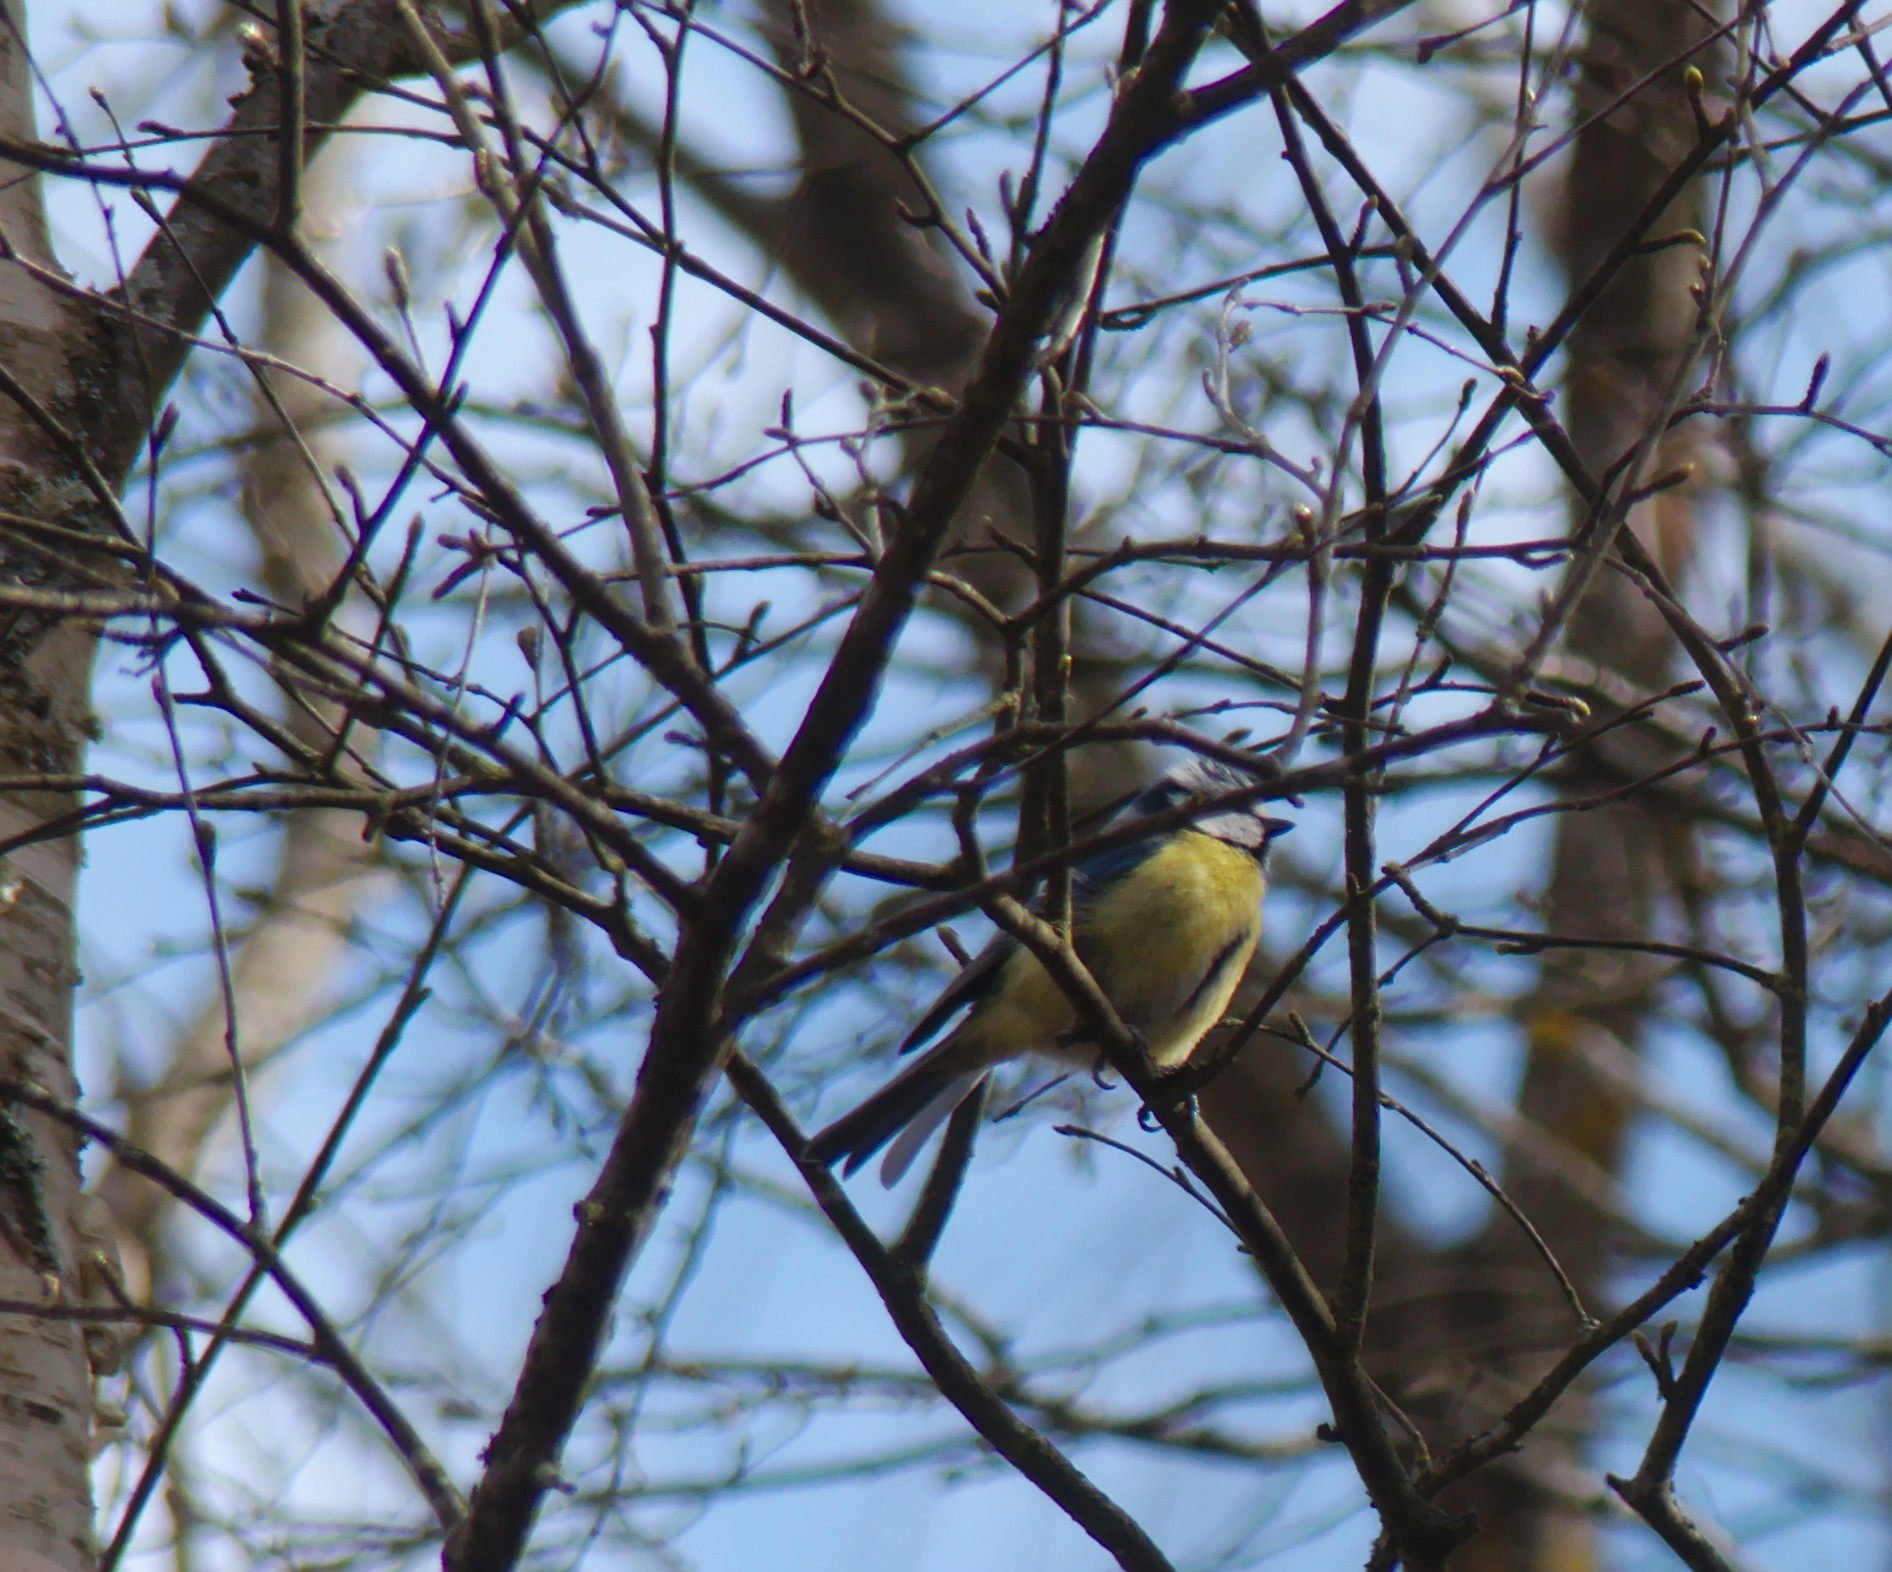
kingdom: Animalia
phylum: Chordata
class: Aves
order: Passeriformes
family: Paridae
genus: Cyanistes
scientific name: Cyanistes caeruleus
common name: Eurasian blue tit
